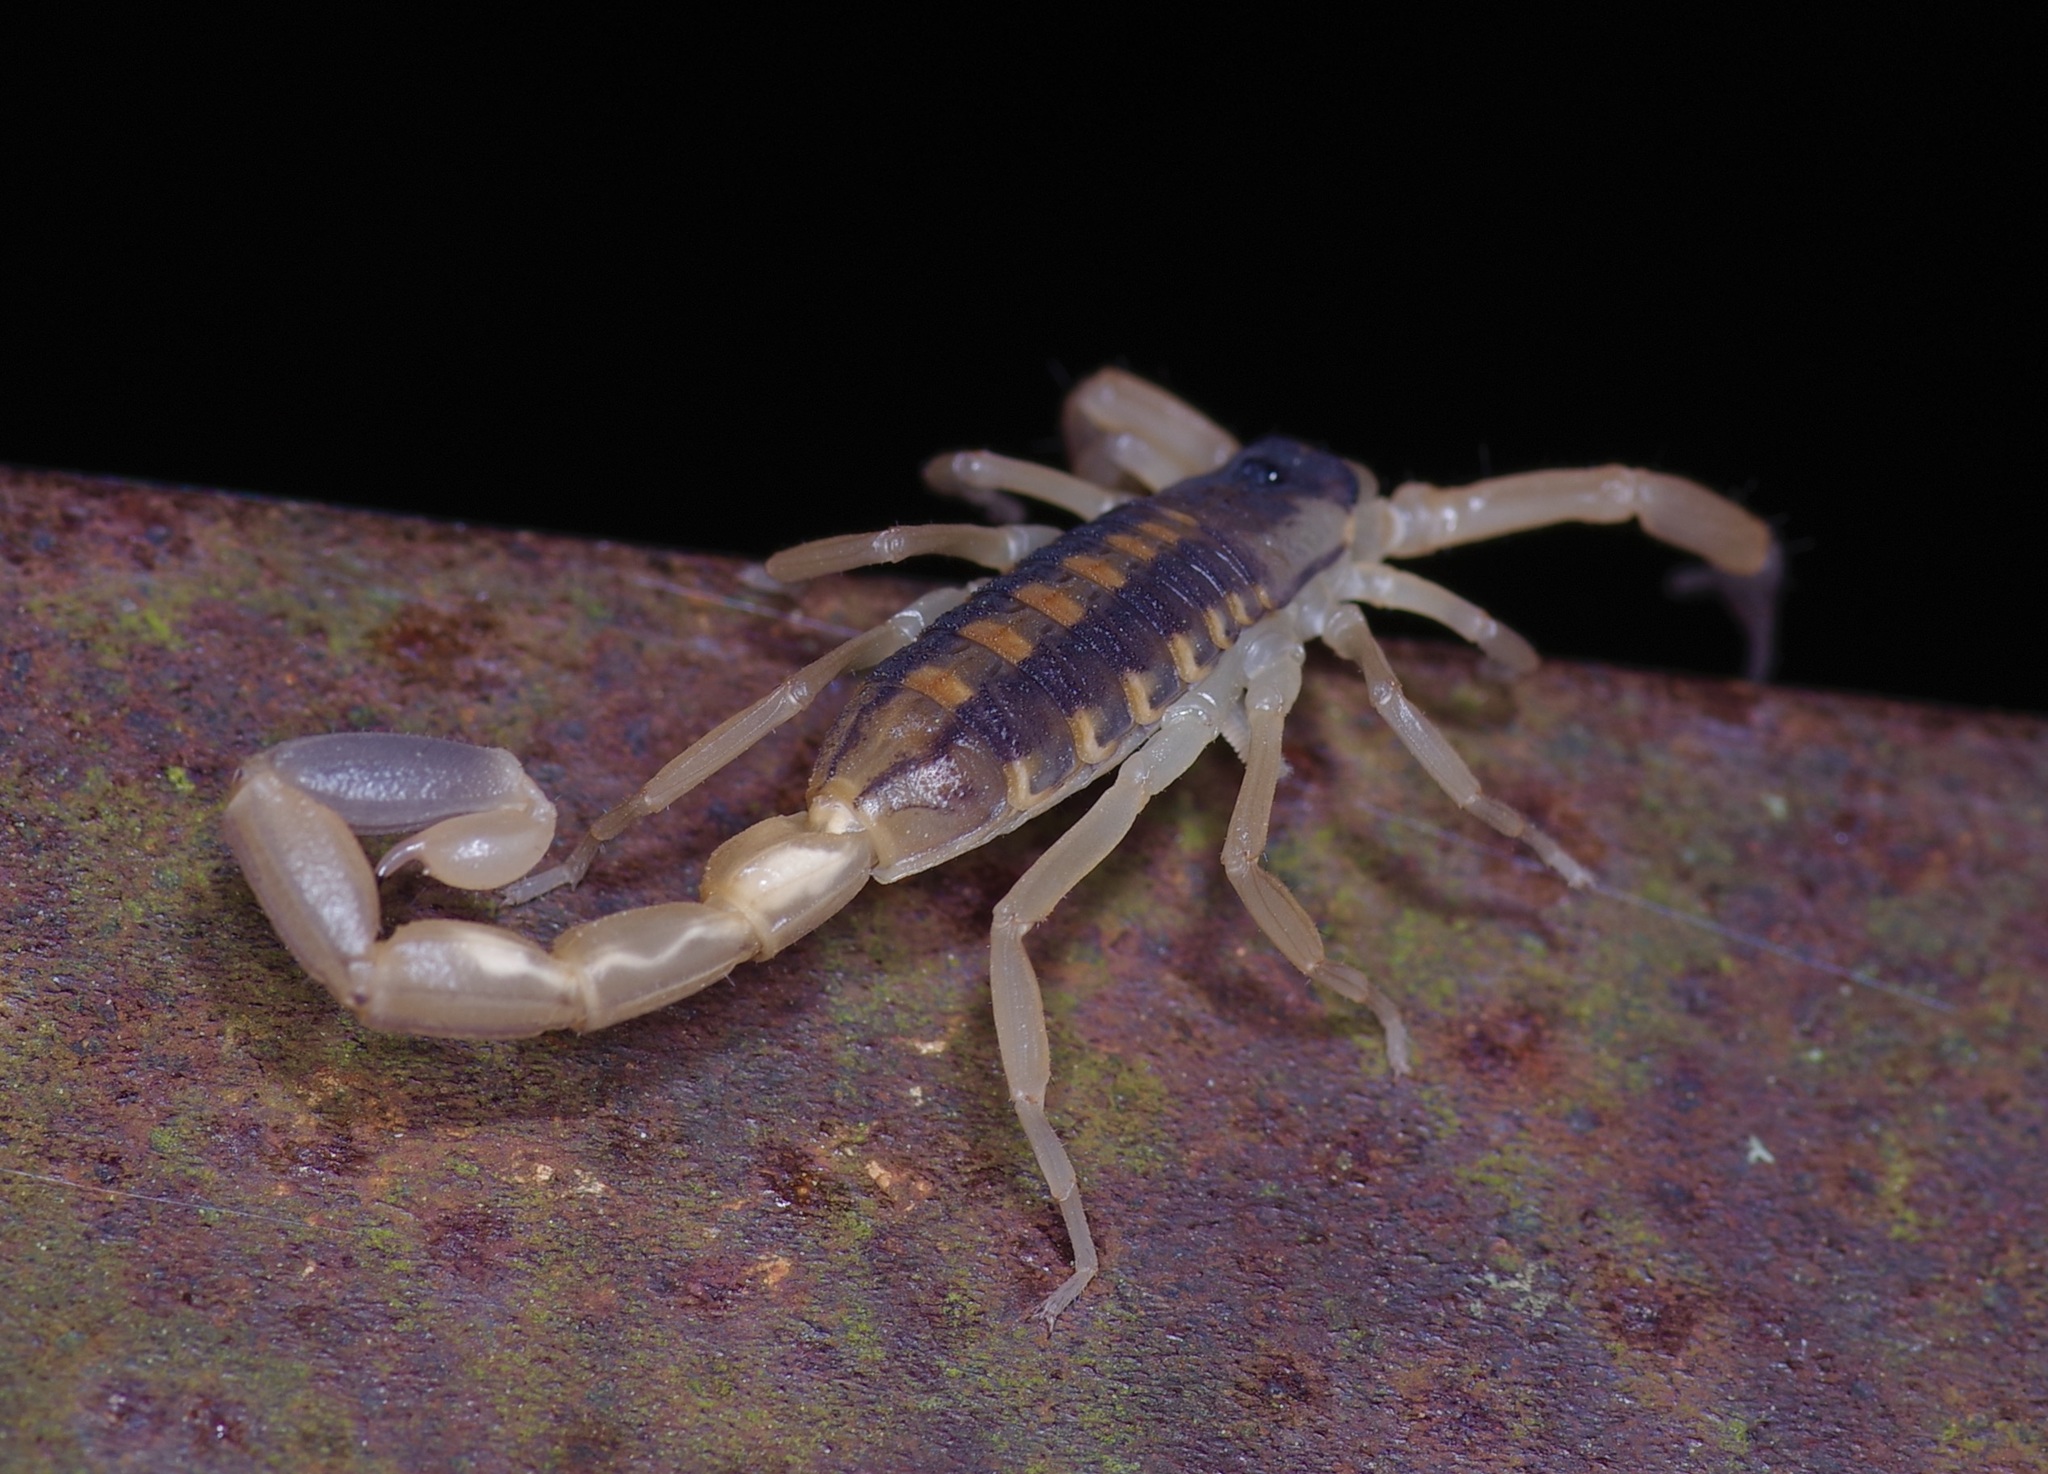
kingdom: Animalia
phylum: Arthropoda
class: Arachnida
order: Scorpiones
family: Buthidae
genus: Centruroides
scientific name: Centruroides vittatus
